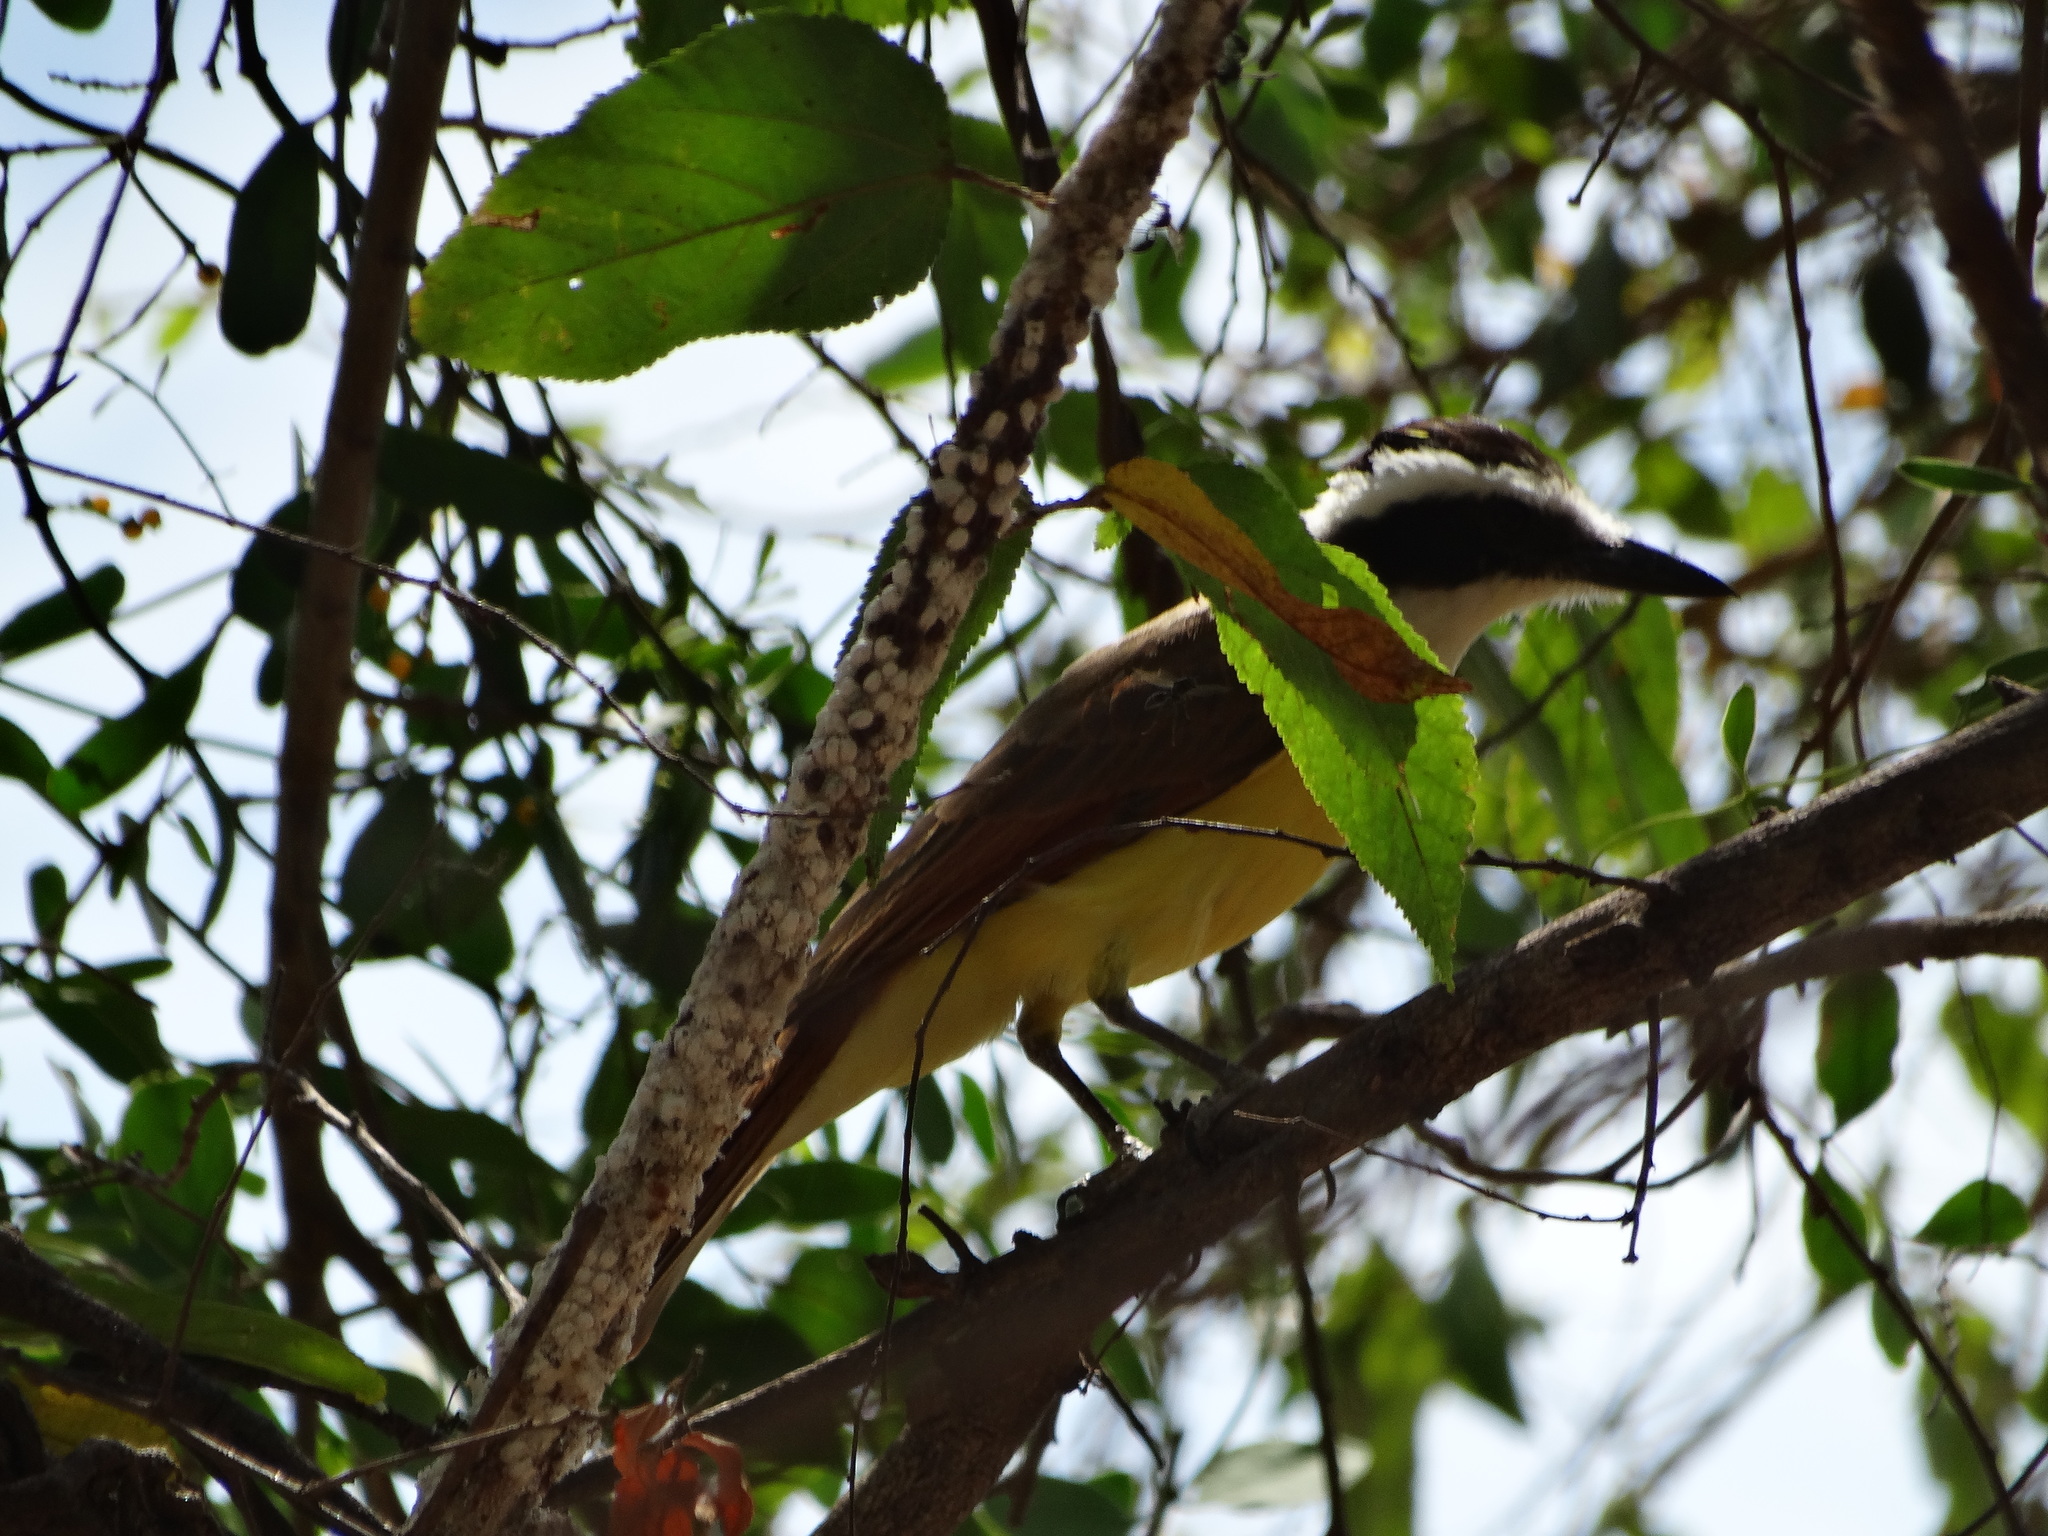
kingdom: Animalia
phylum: Chordata
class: Aves
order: Passeriformes
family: Tyrannidae
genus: Pitangus
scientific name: Pitangus sulphuratus
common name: Great kiskadee
